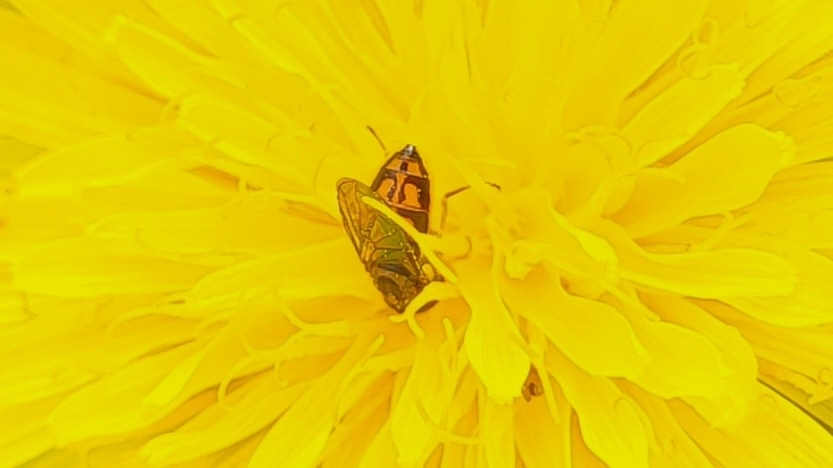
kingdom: Animalia
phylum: Arthropoda
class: Insecta
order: Diptera
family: Syrphidae
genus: Toxomerus
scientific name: Toxomerus marginatus
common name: Syrphid fly
